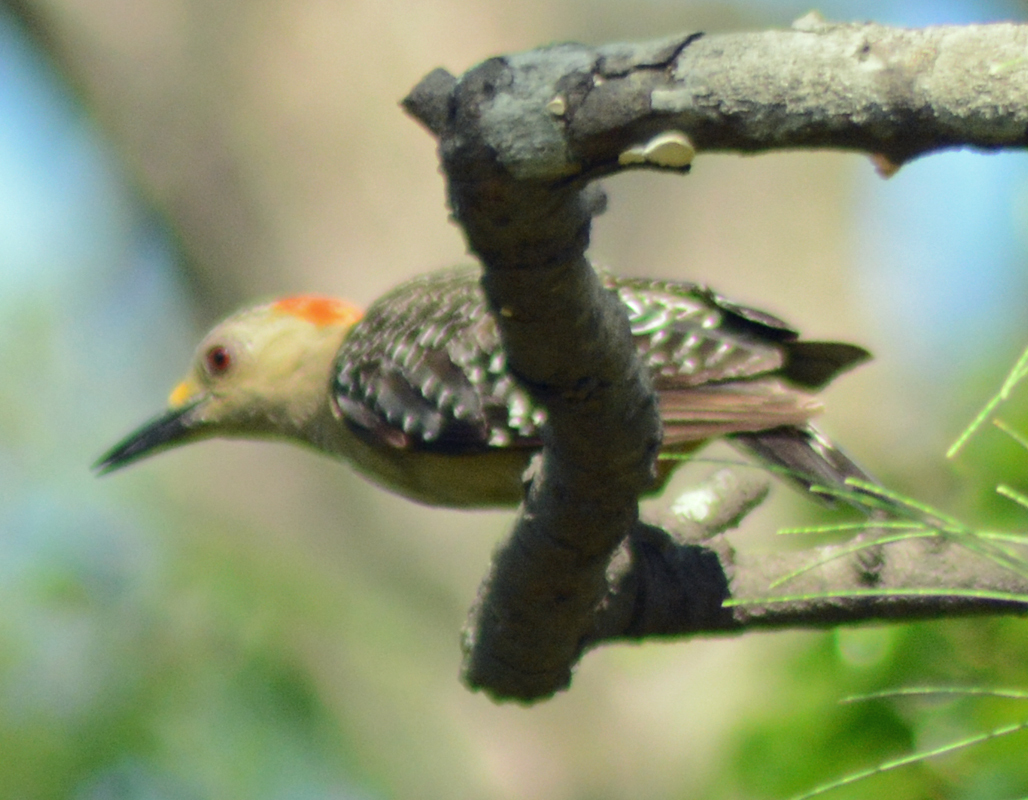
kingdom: Animalia
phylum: Chordata
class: Aves
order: Piciformes
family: Picidae
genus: Melanerpes
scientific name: Melanerpes aurifrons
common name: Golden-fronted woodpecker
